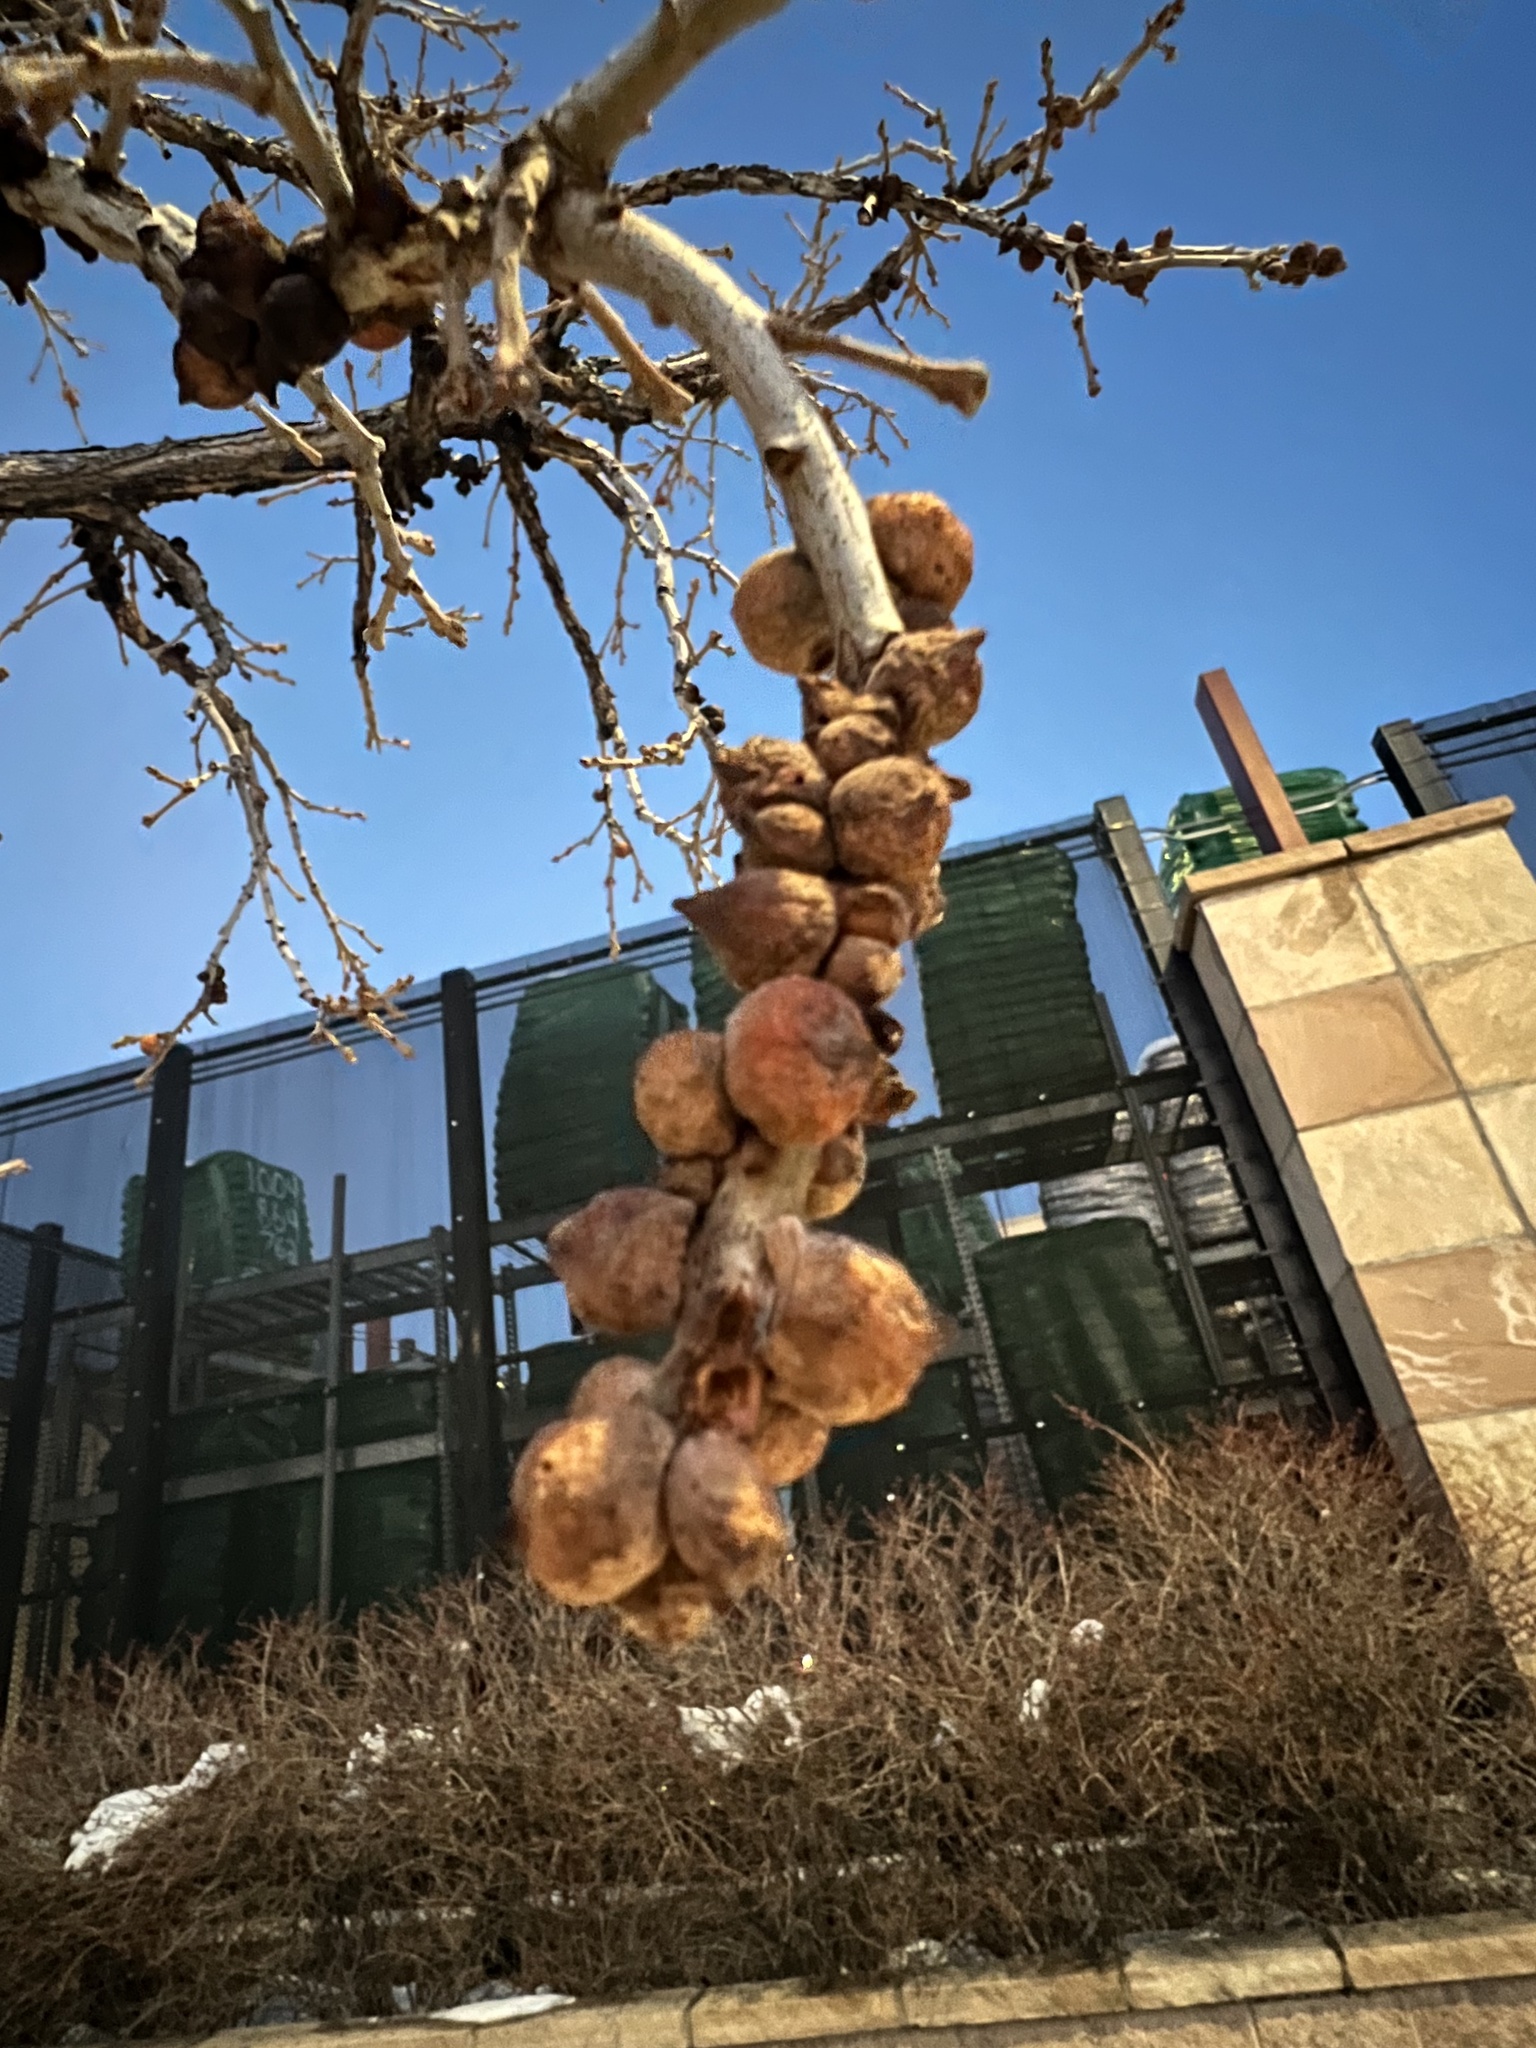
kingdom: Animalia
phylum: Arthropoda
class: Insecta
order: Hymenoptera
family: Cynipidae
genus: Disholcaspis
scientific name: Disholcaspis
